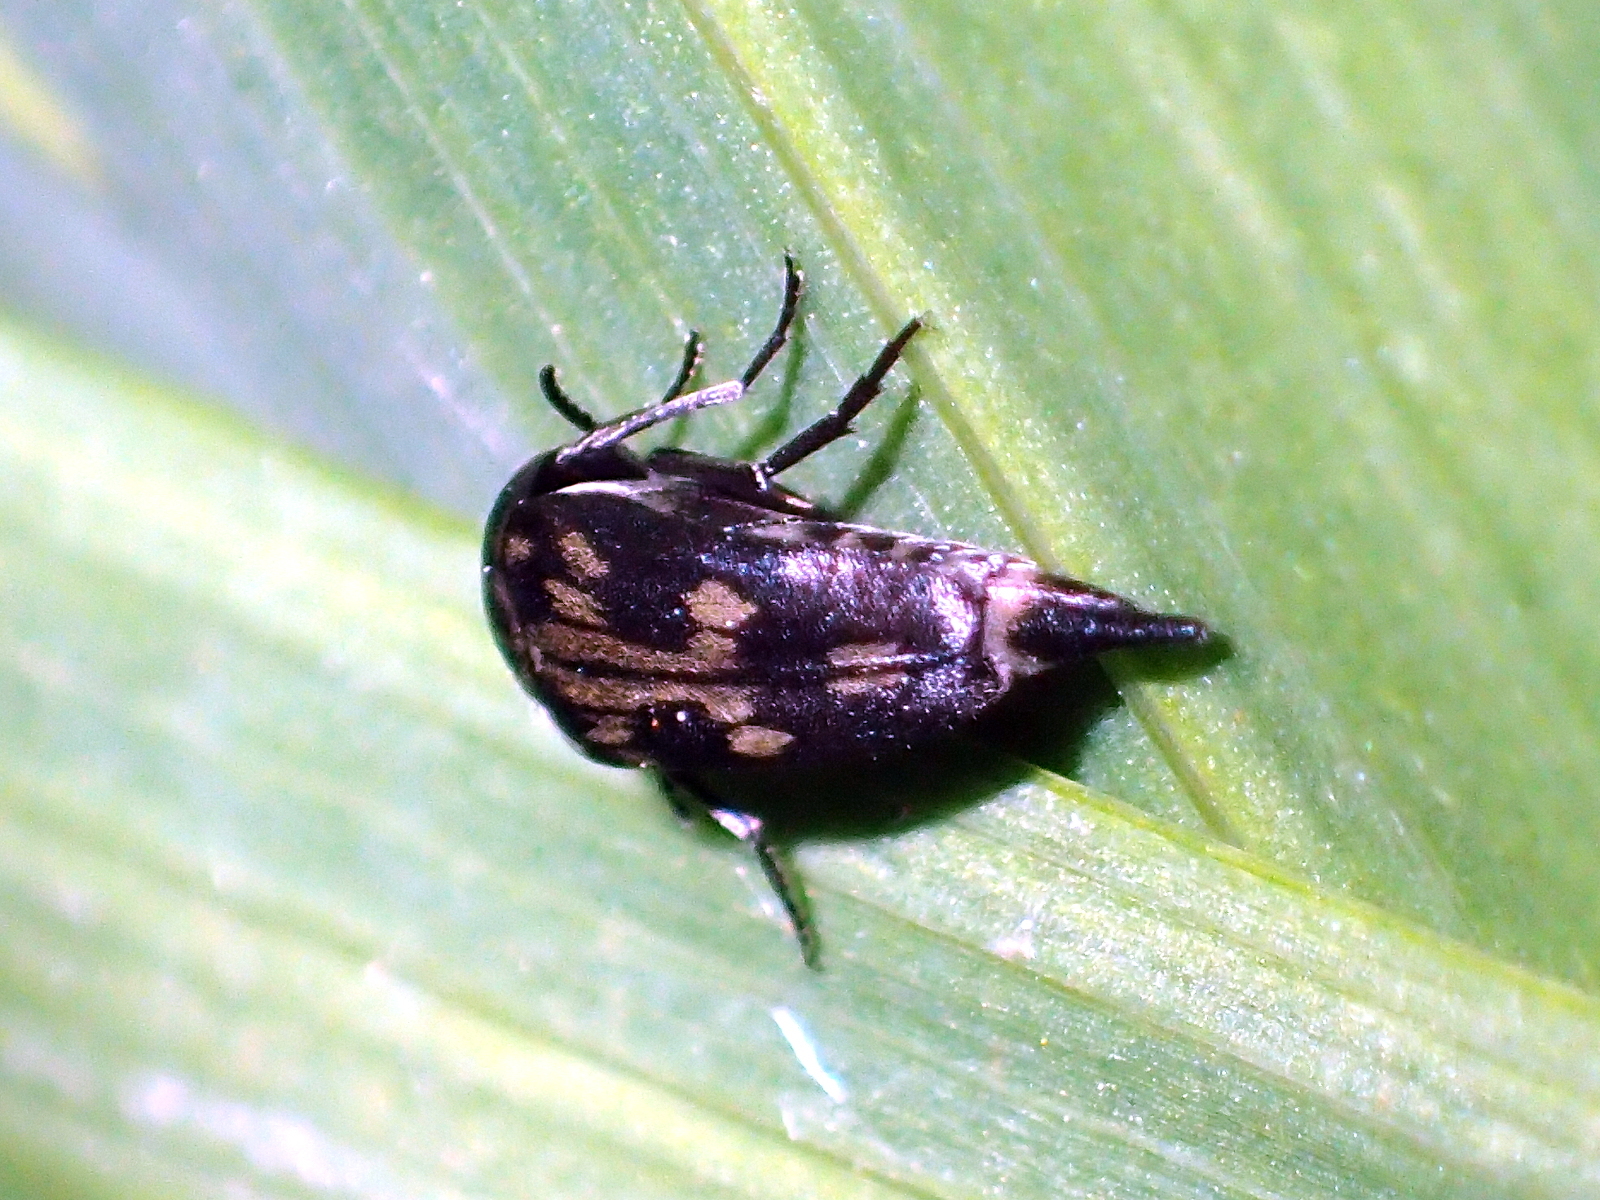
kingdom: Animalia
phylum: Arthropoda
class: Insecta
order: Coleoptera
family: Mordellidae
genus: Zeamordella
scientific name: Zeamordella monacha
